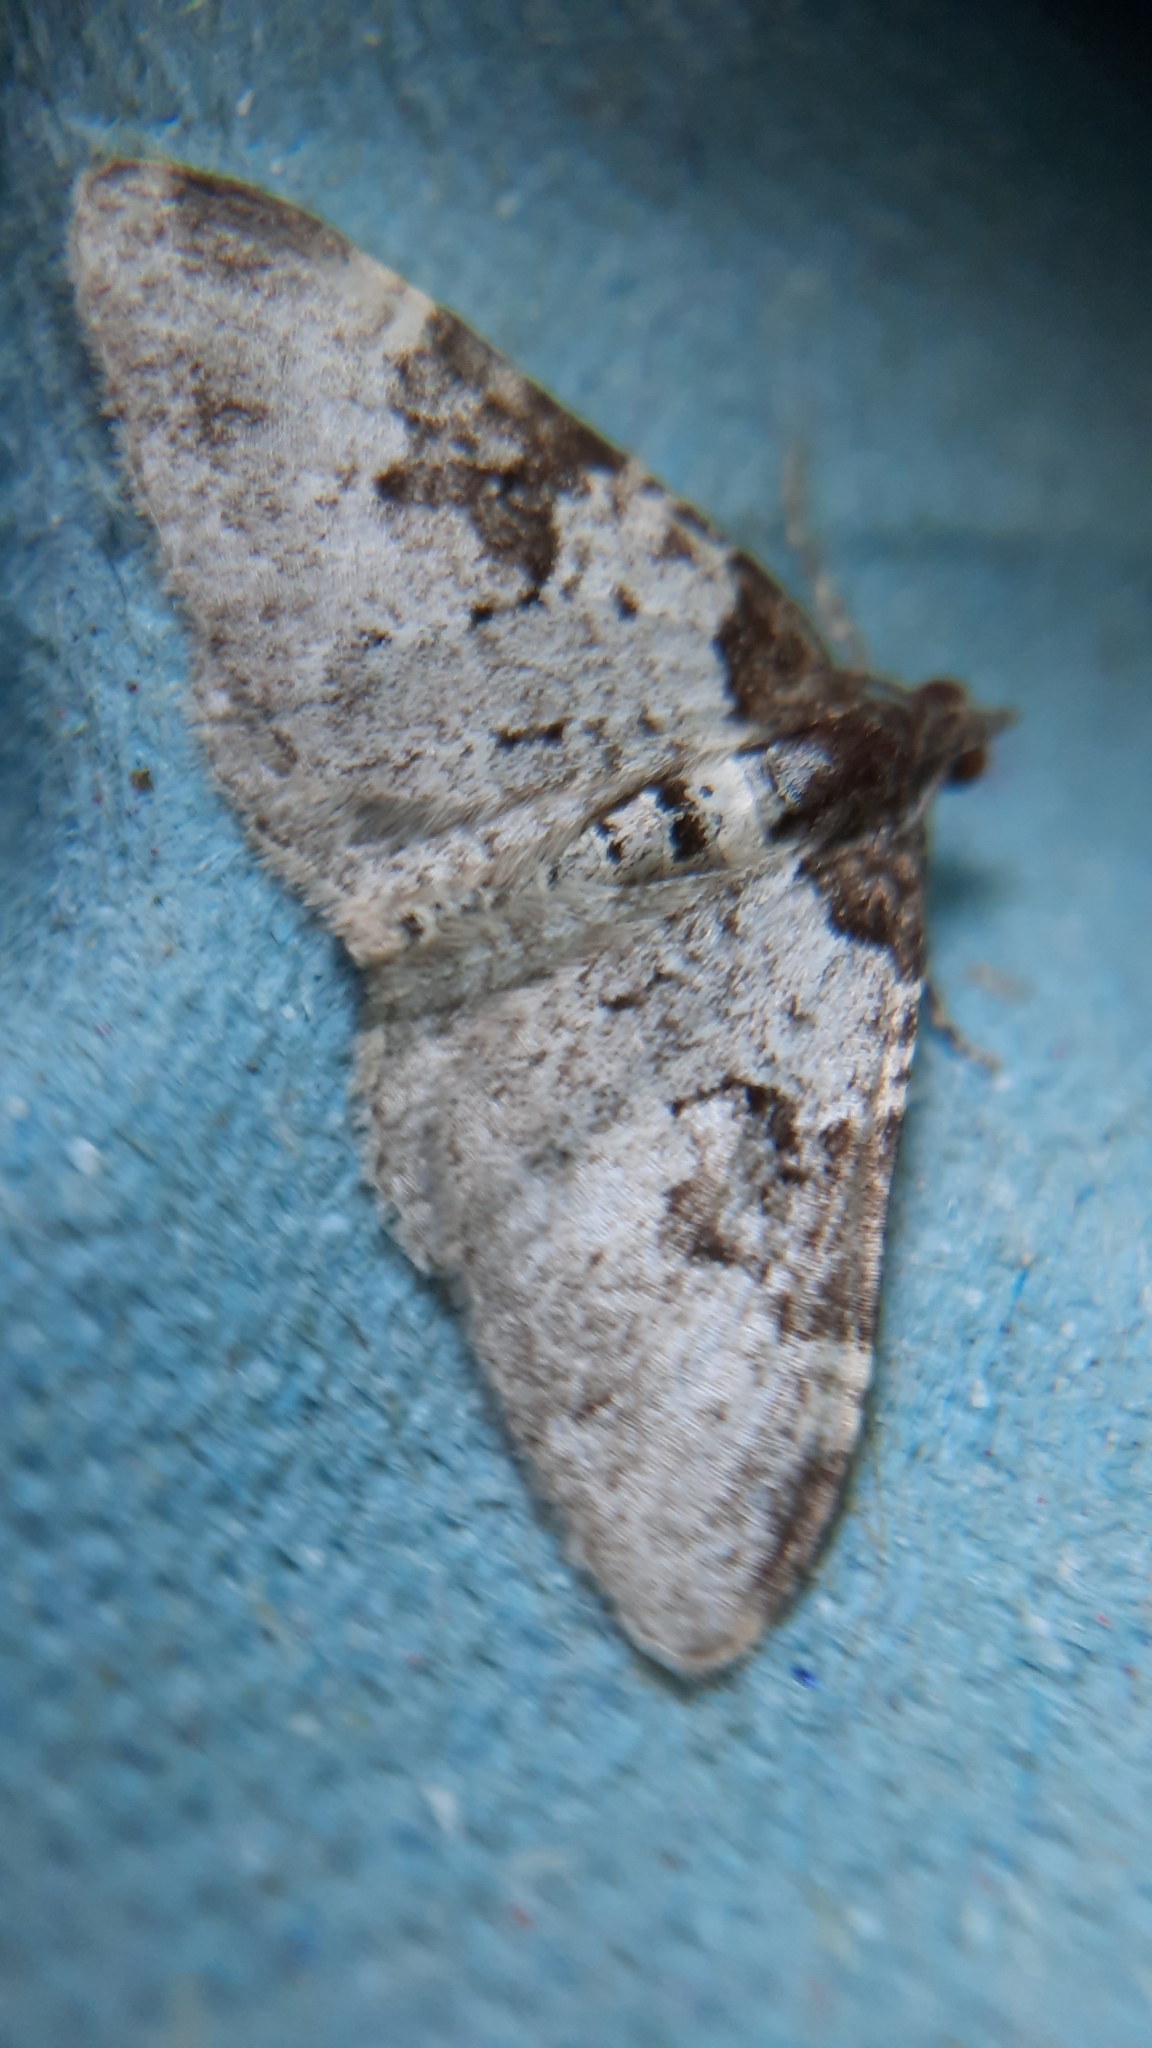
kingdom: Animalia
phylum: Arthropoda
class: Insecta
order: Lepidoptera
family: Geometridae
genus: Xanthorhoe
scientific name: Xanthorhoe fluctuata
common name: Garden carpet
